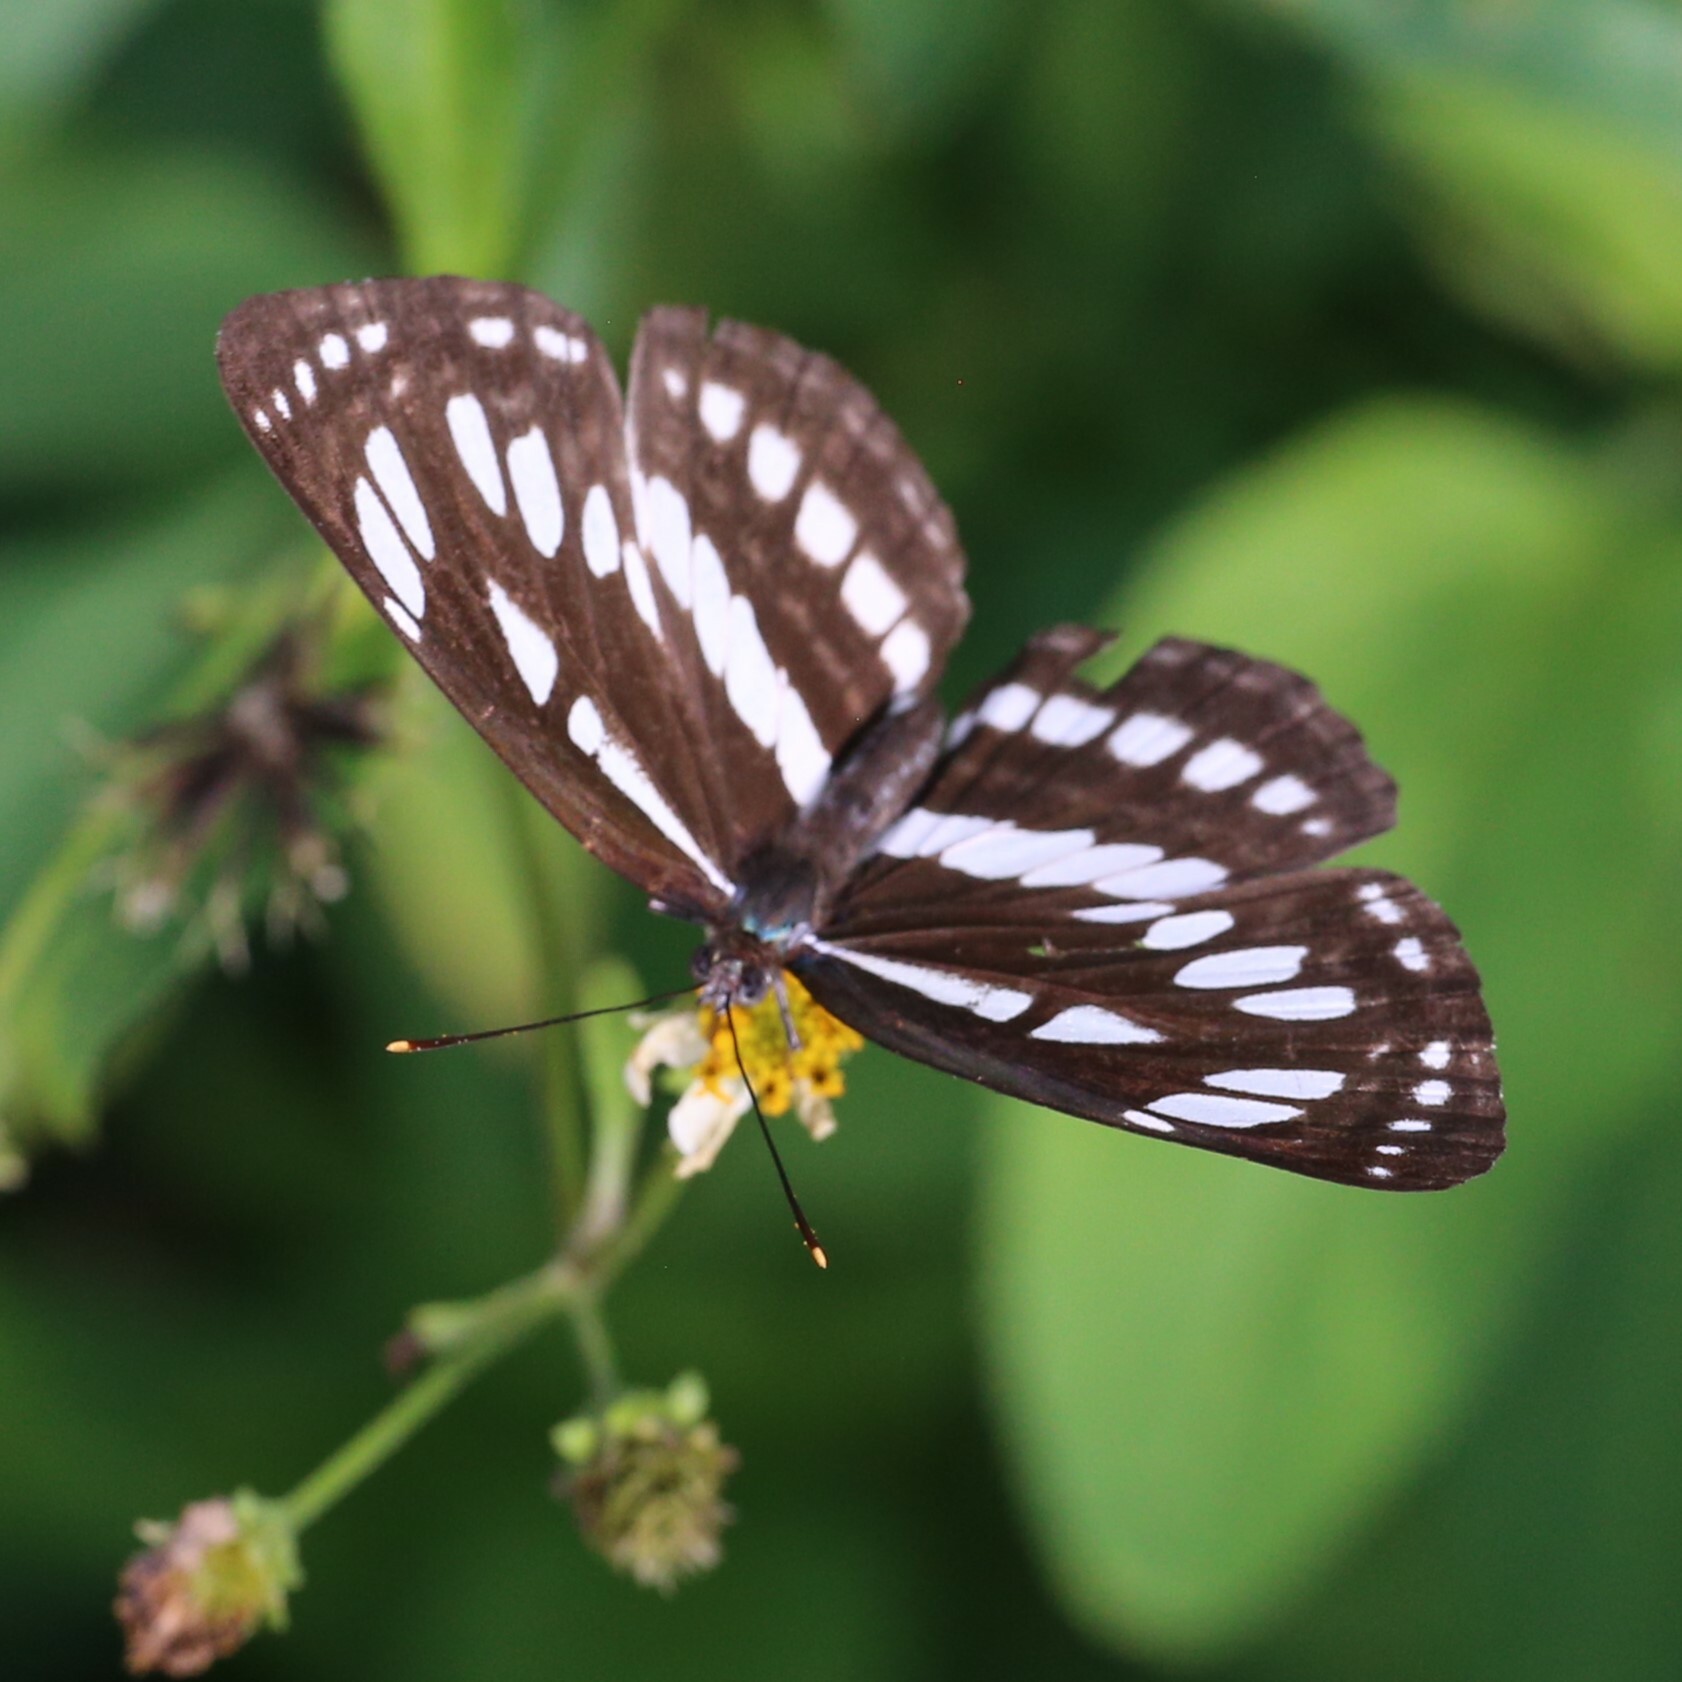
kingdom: Animalia
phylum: Arthropoda
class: Insecta
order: Lepidoptera
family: Nymphalidae
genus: Neptis
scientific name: Neptis hylas
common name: Common sailer
